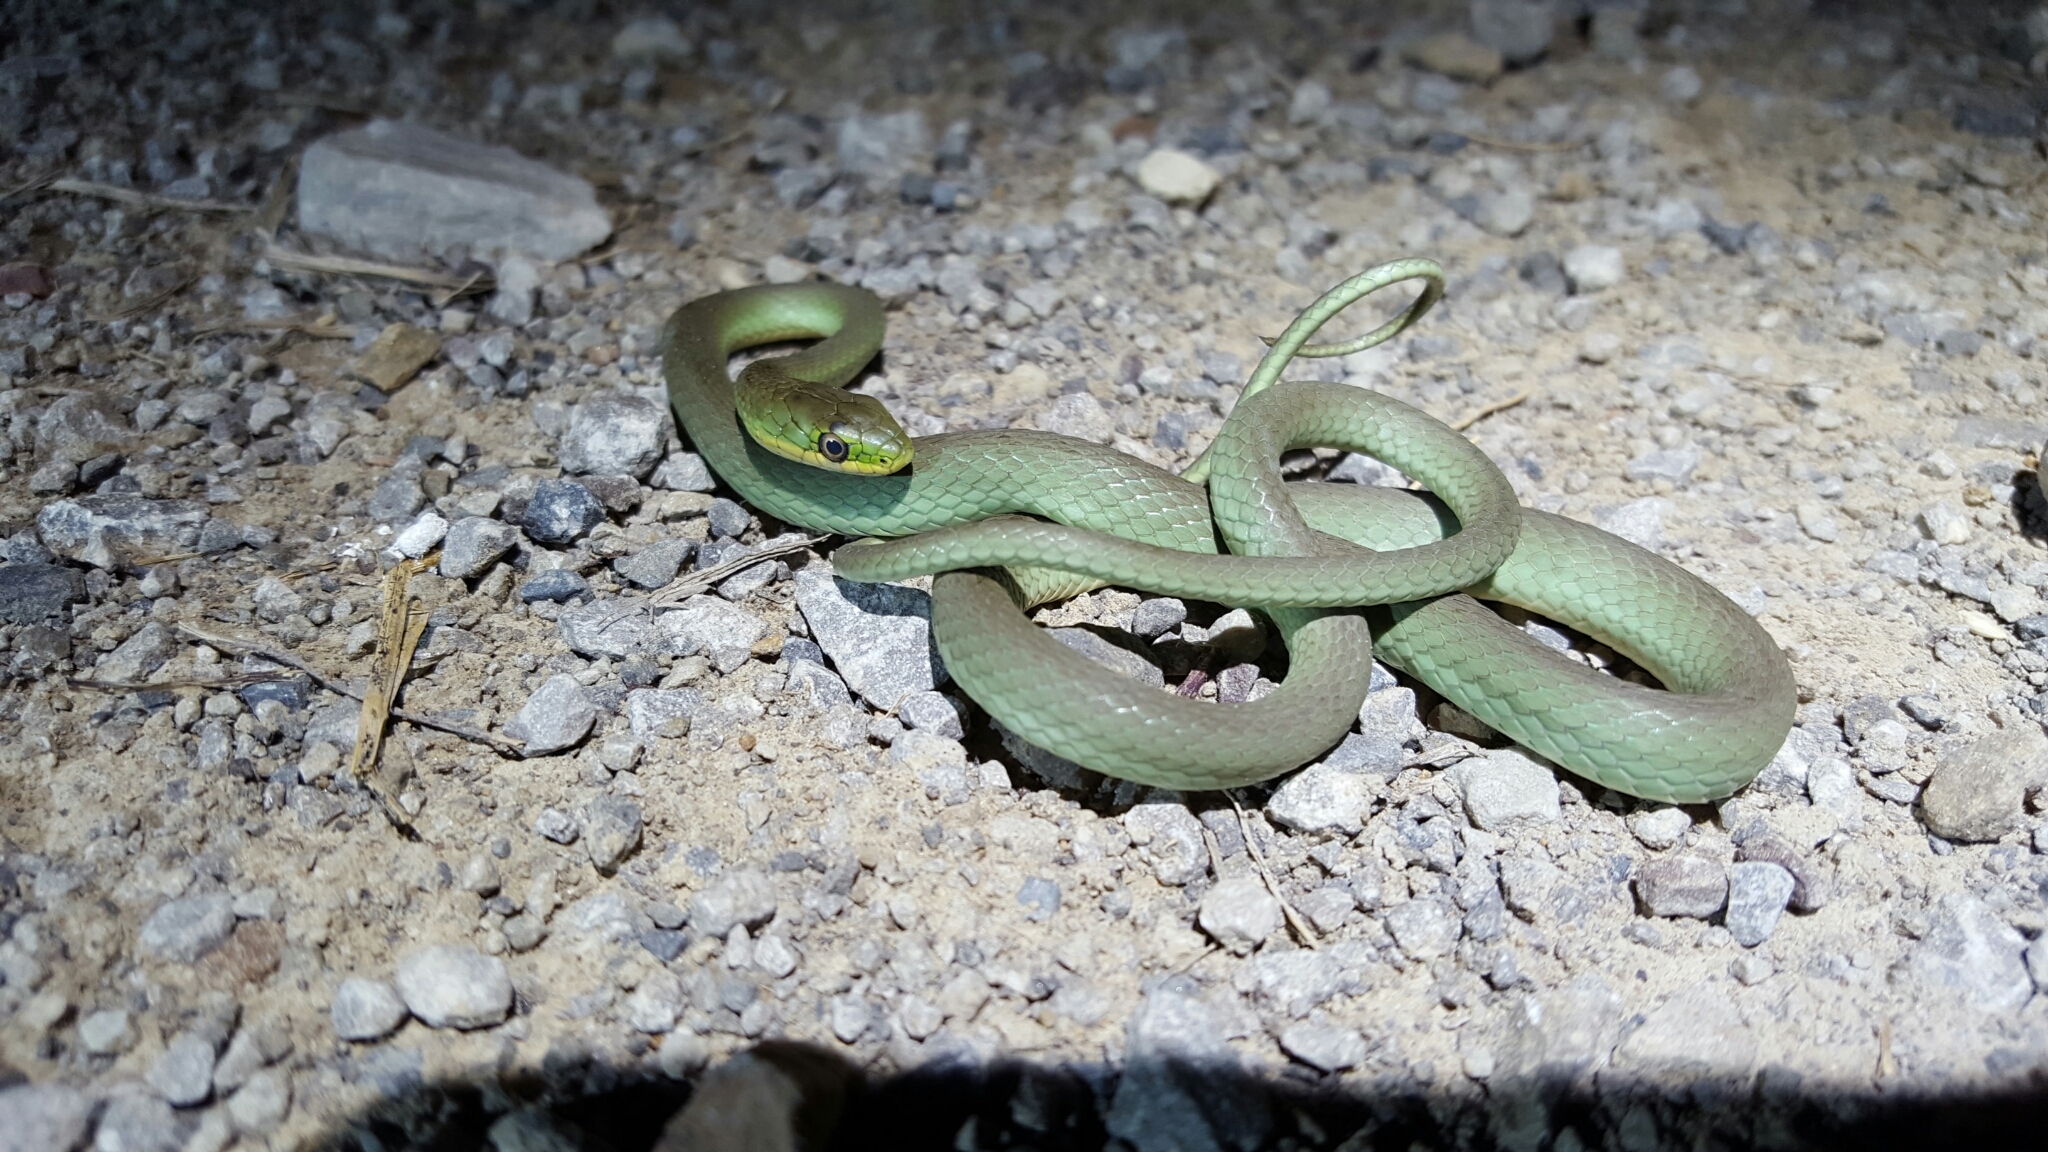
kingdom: Animalia
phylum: Chordata
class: Squamata
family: Colubridae
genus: Opheodrys
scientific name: Opheodrys aestivus
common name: Rough greensnake
